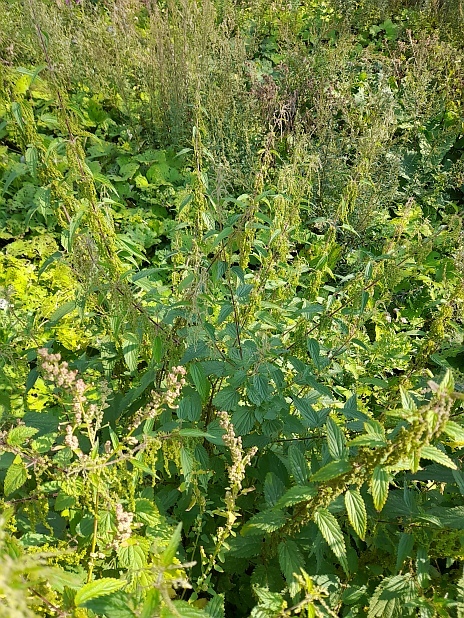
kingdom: Plantae
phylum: Tracheophyta
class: Magnoliopsida
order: Rosales
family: Urticaceae
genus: Urtica
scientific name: Urtica dioica
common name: Common nettle
